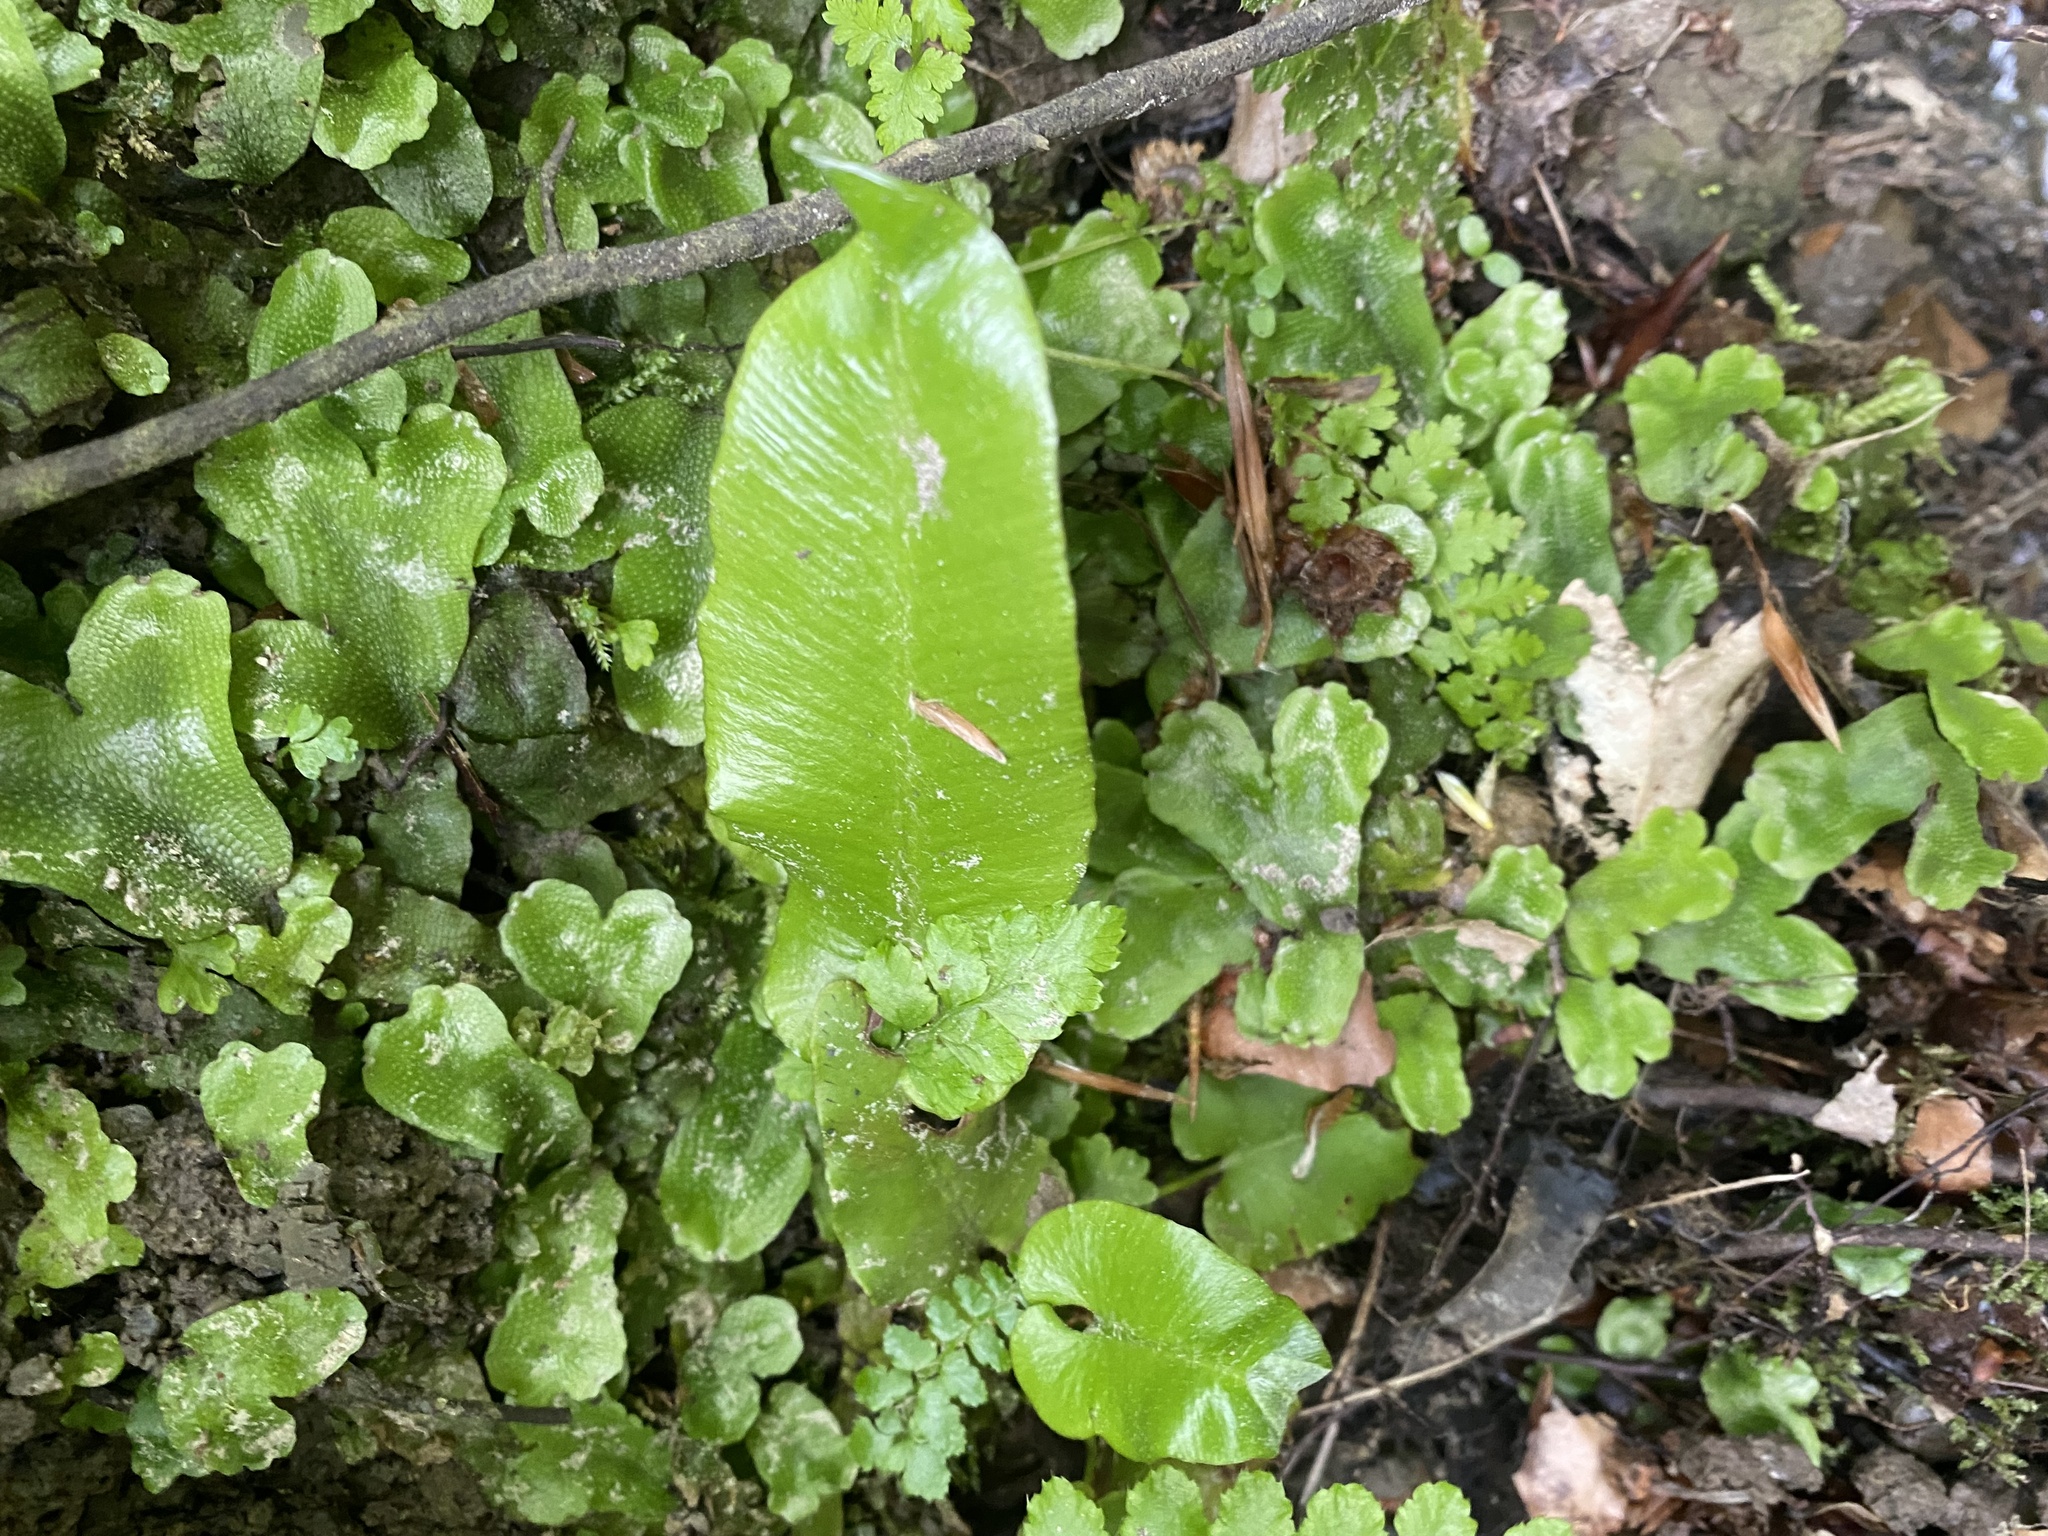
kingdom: Plantae
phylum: Tracheophyta
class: Polypodiopsida
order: Polypodiales
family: Aspleniaceae
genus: Asplenium
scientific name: Asplenium scolopendrium
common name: Hart's-tongue fern
